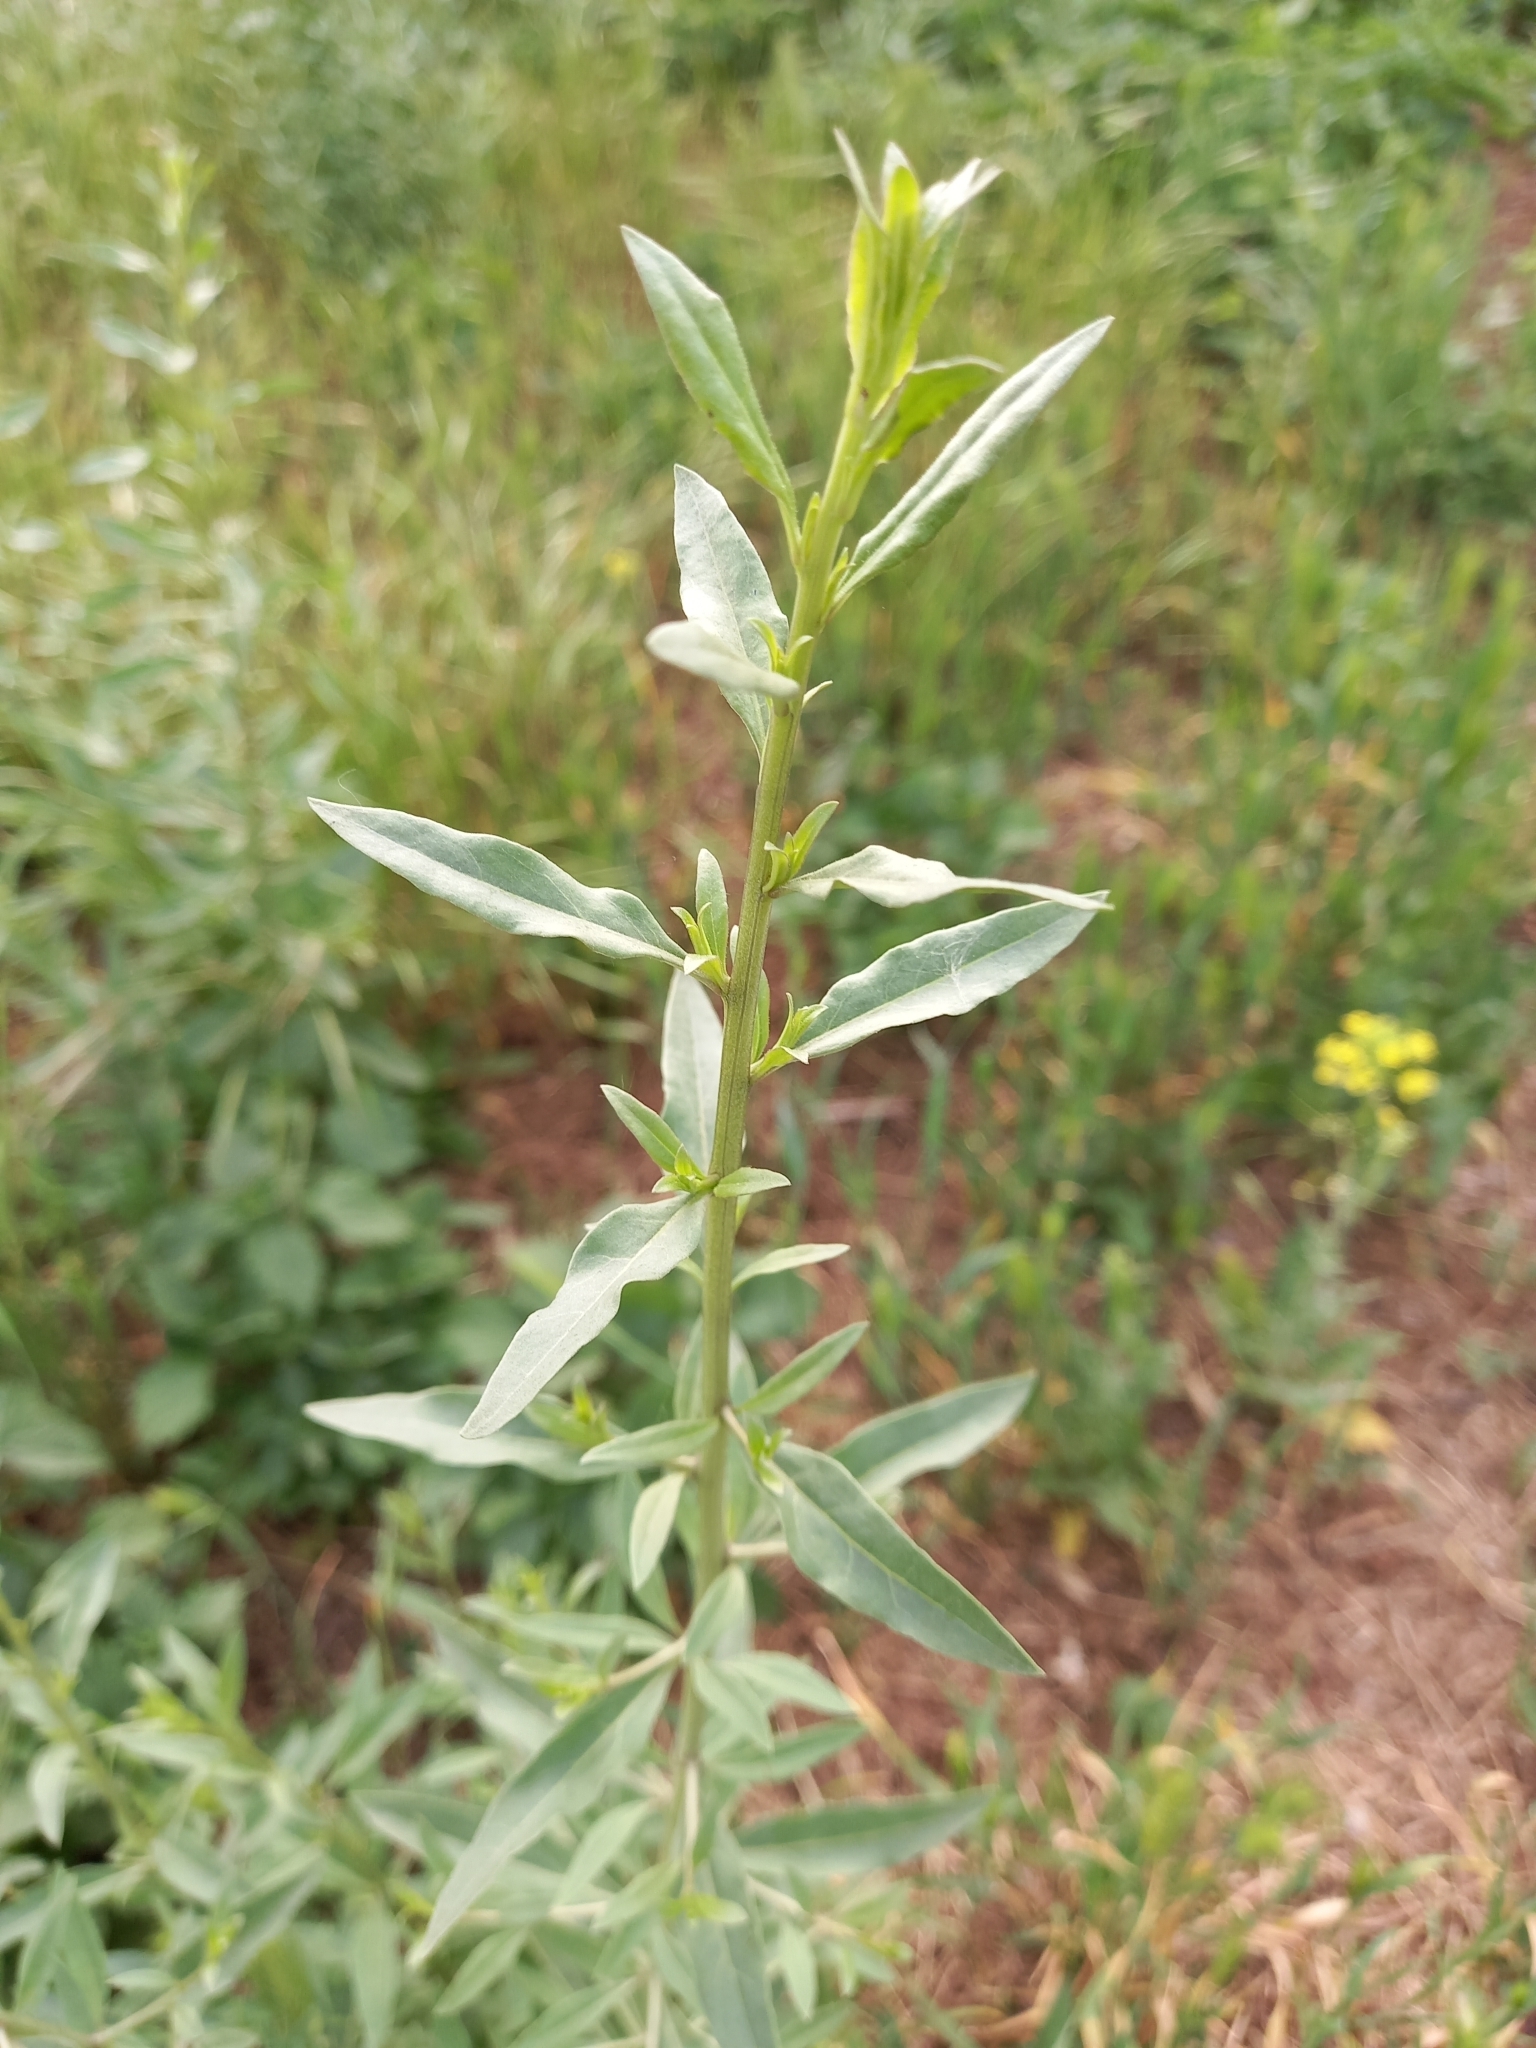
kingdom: Plantae
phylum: Tracheophyta
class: Magnoliopsida
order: Solanales
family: Solanaceae
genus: Lycium
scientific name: Lycium barbarum
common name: Duke of argyll's teaplant
